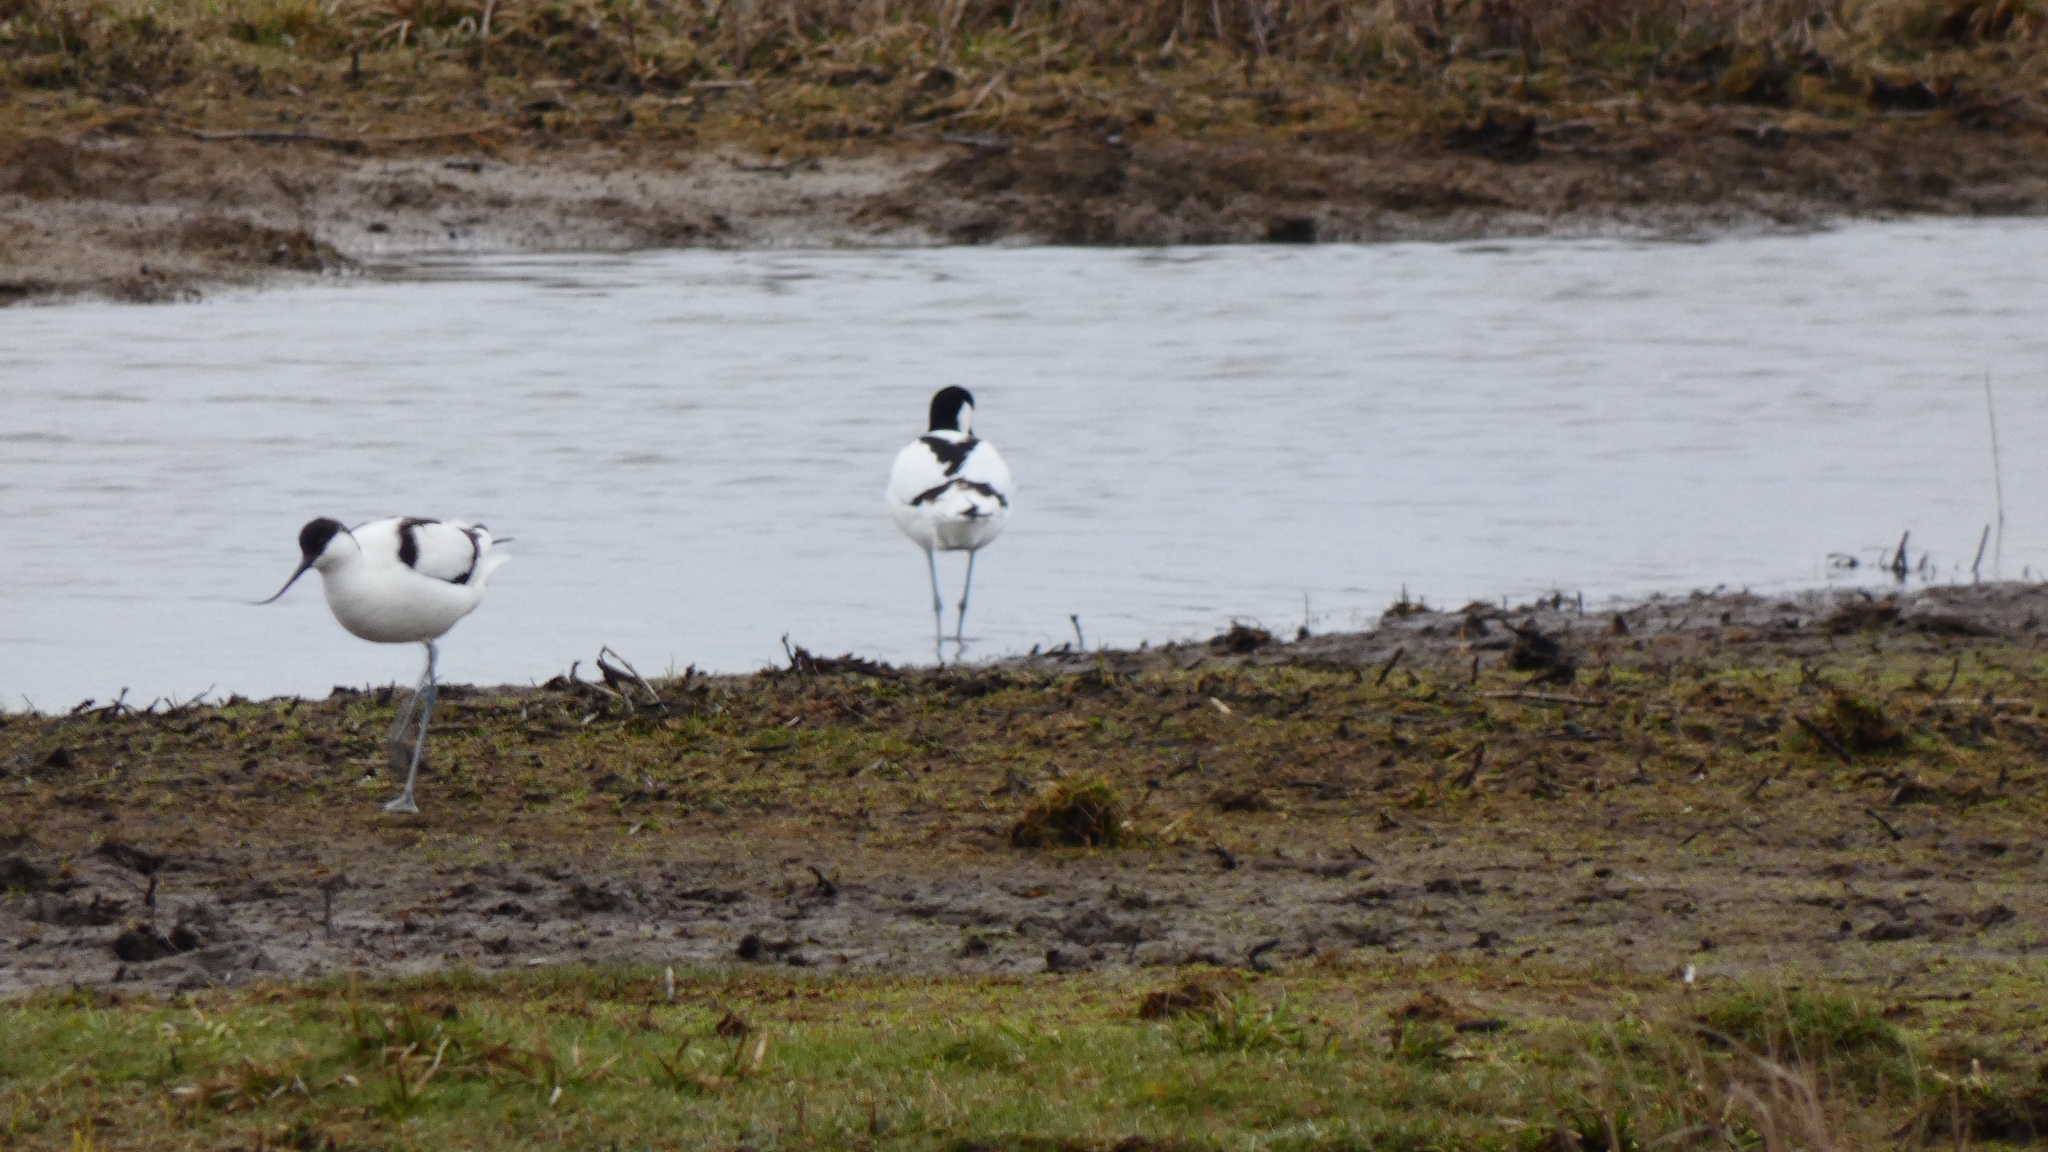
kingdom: Animalia
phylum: Chordata
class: Aves
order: Charadriiformes
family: Recurvirostridae
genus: Recurvirostra
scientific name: Recurvirostra avosetta
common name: Pied avocet
